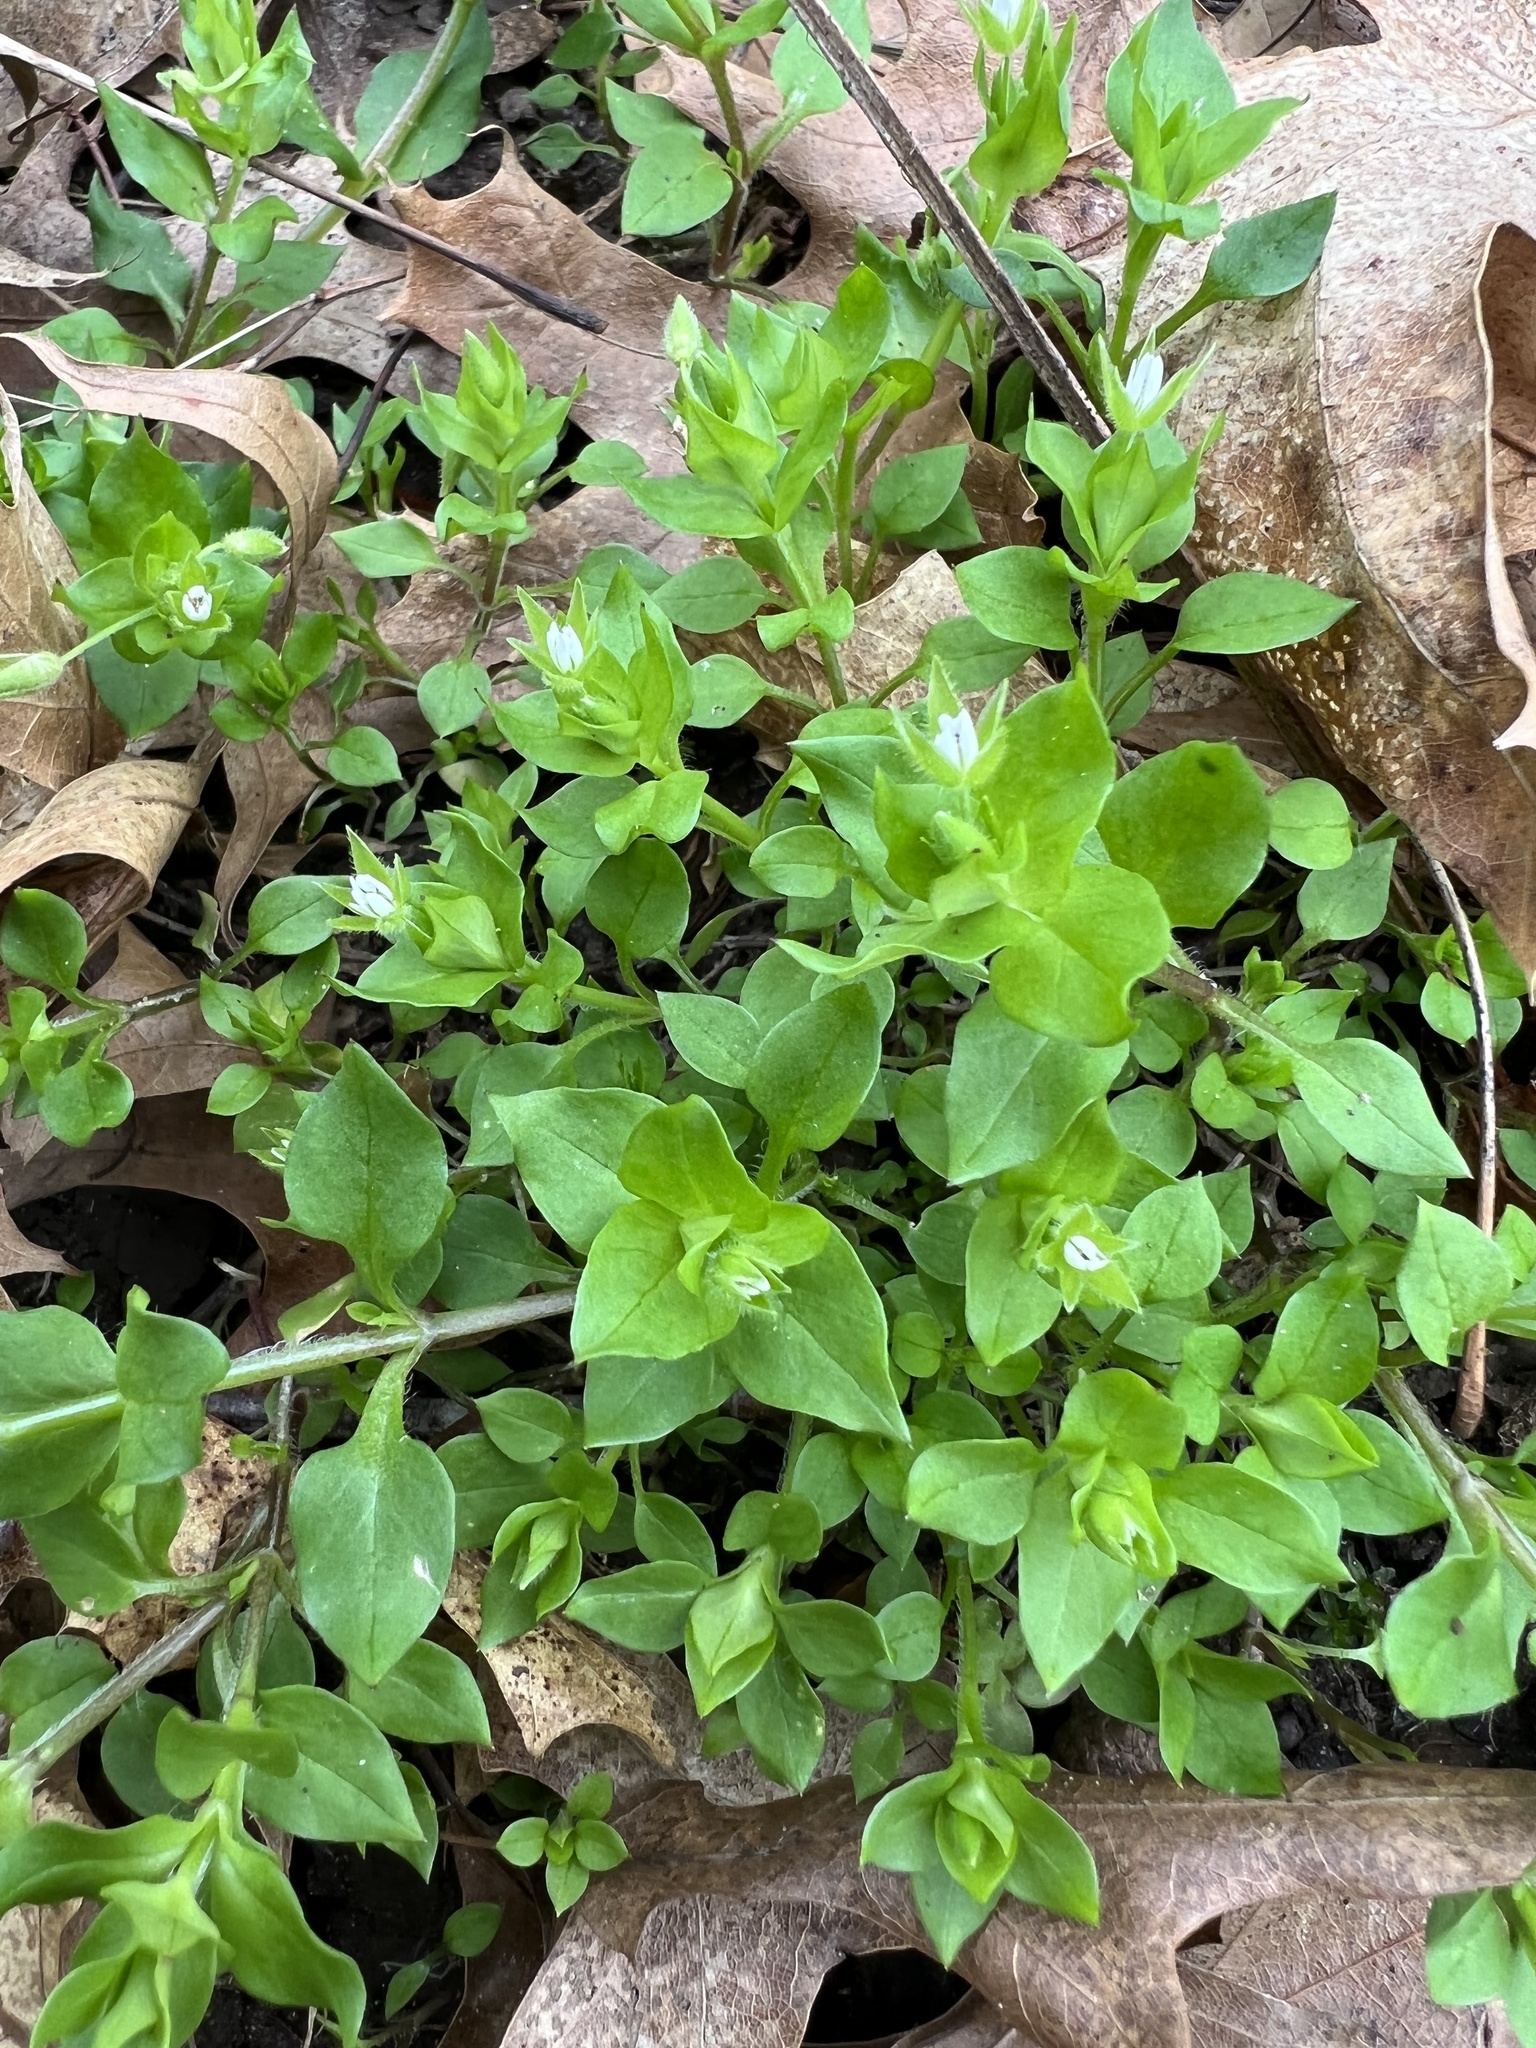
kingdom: Plantae
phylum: Tracheophyta
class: Magnoliopsida
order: Caryophyllales
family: Caryophyllaceae
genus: Stellaria
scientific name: Stellaria media
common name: Common chickweed
